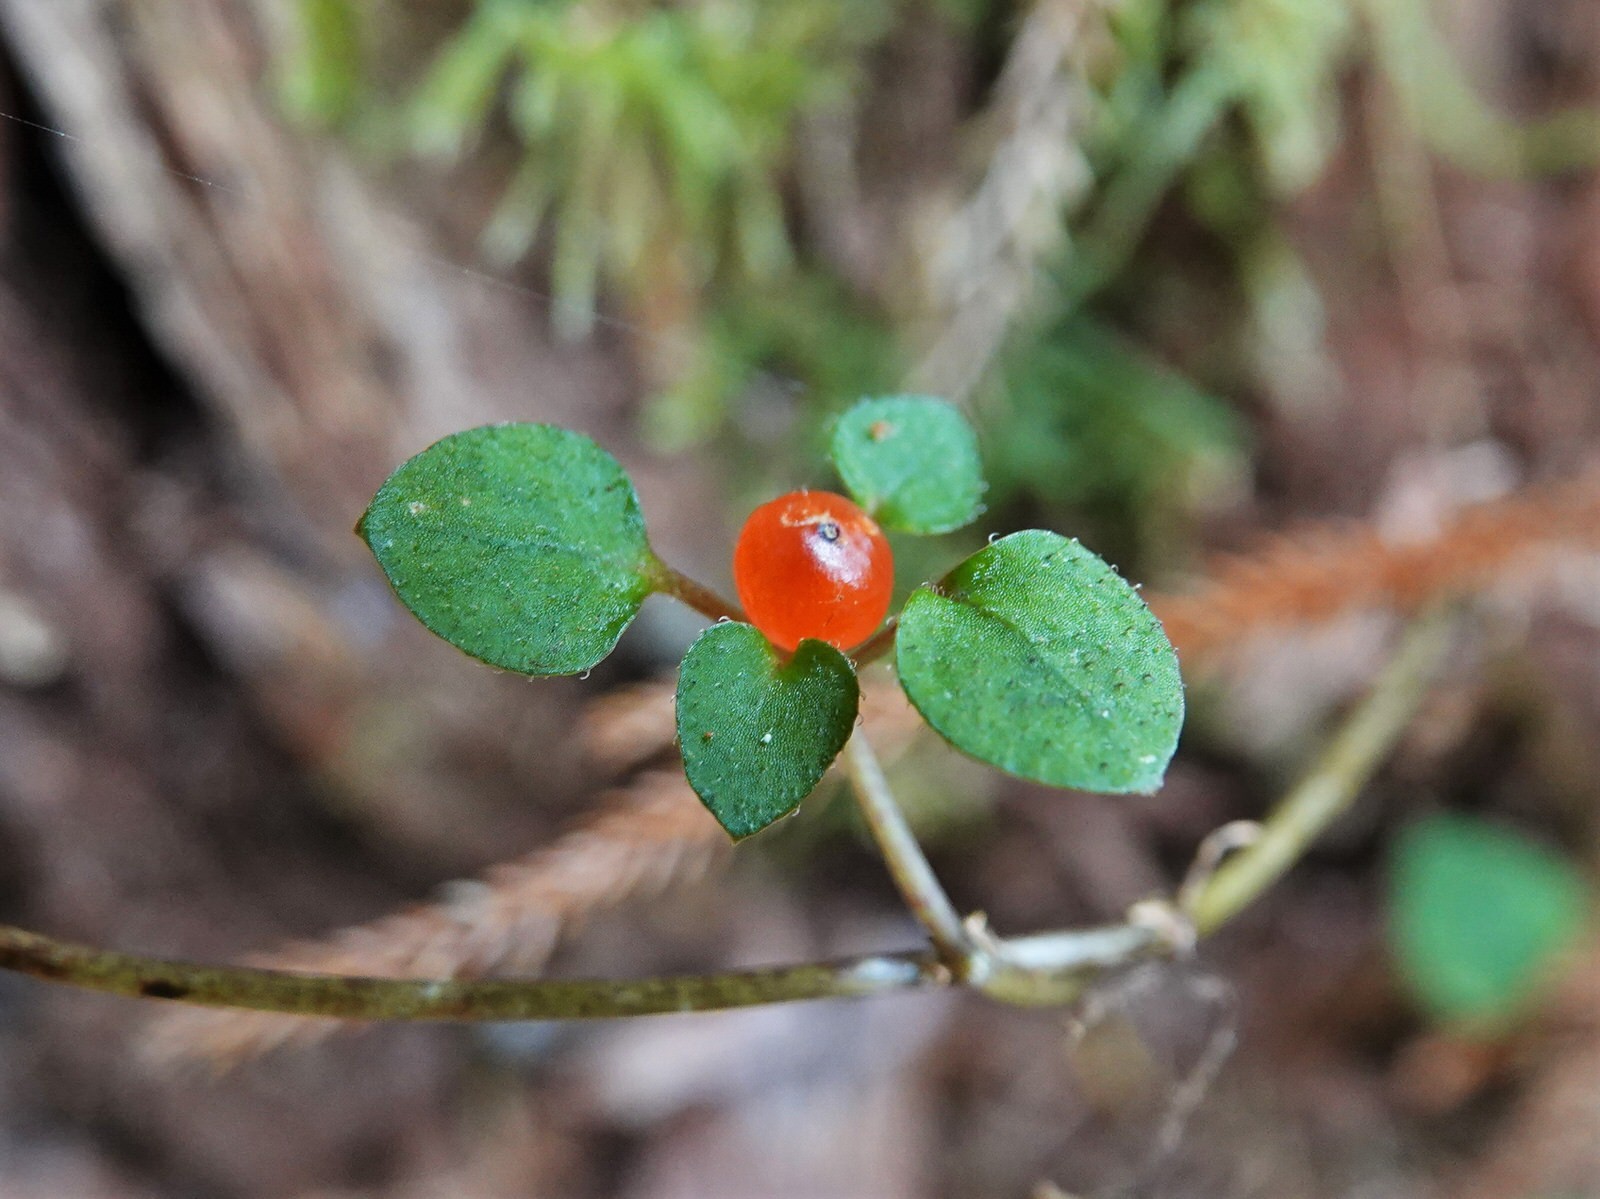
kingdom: Plantae
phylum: Tracheophyta
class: Magnoliopsida
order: Gentianales
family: Rubiaceae
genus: Nertera
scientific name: Nertera dichondrifolia
